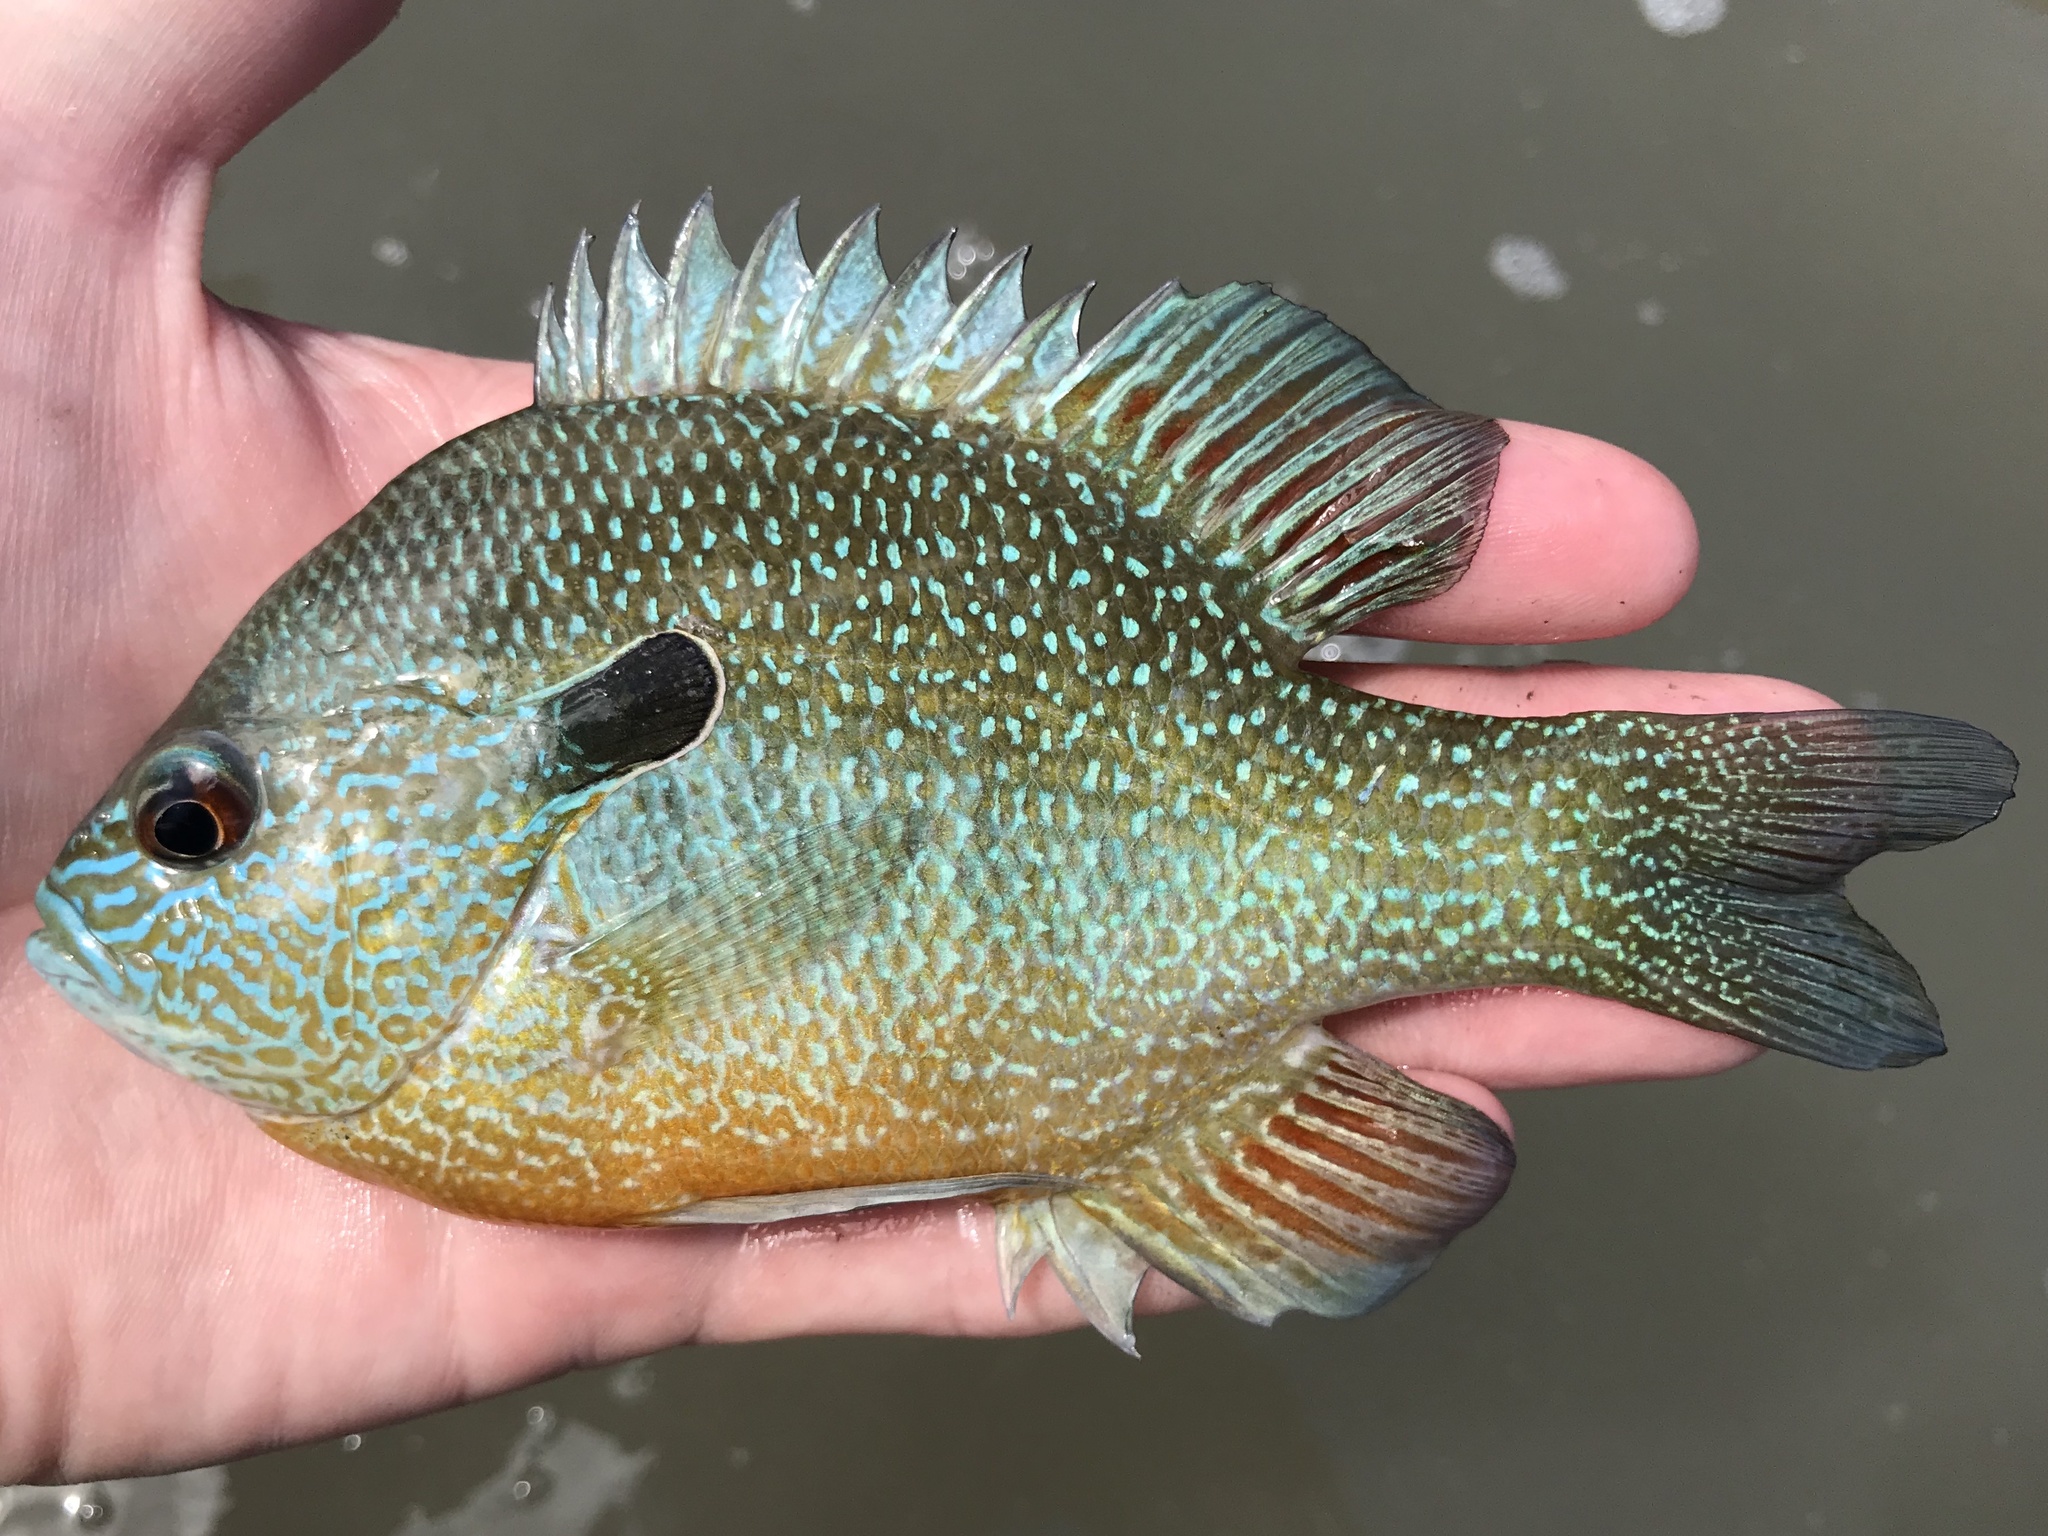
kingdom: Animalia
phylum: Chordata
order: Perciformes
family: Centrarchidae
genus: Lepomis
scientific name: Lepomis megalotis
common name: Longear sunfish
